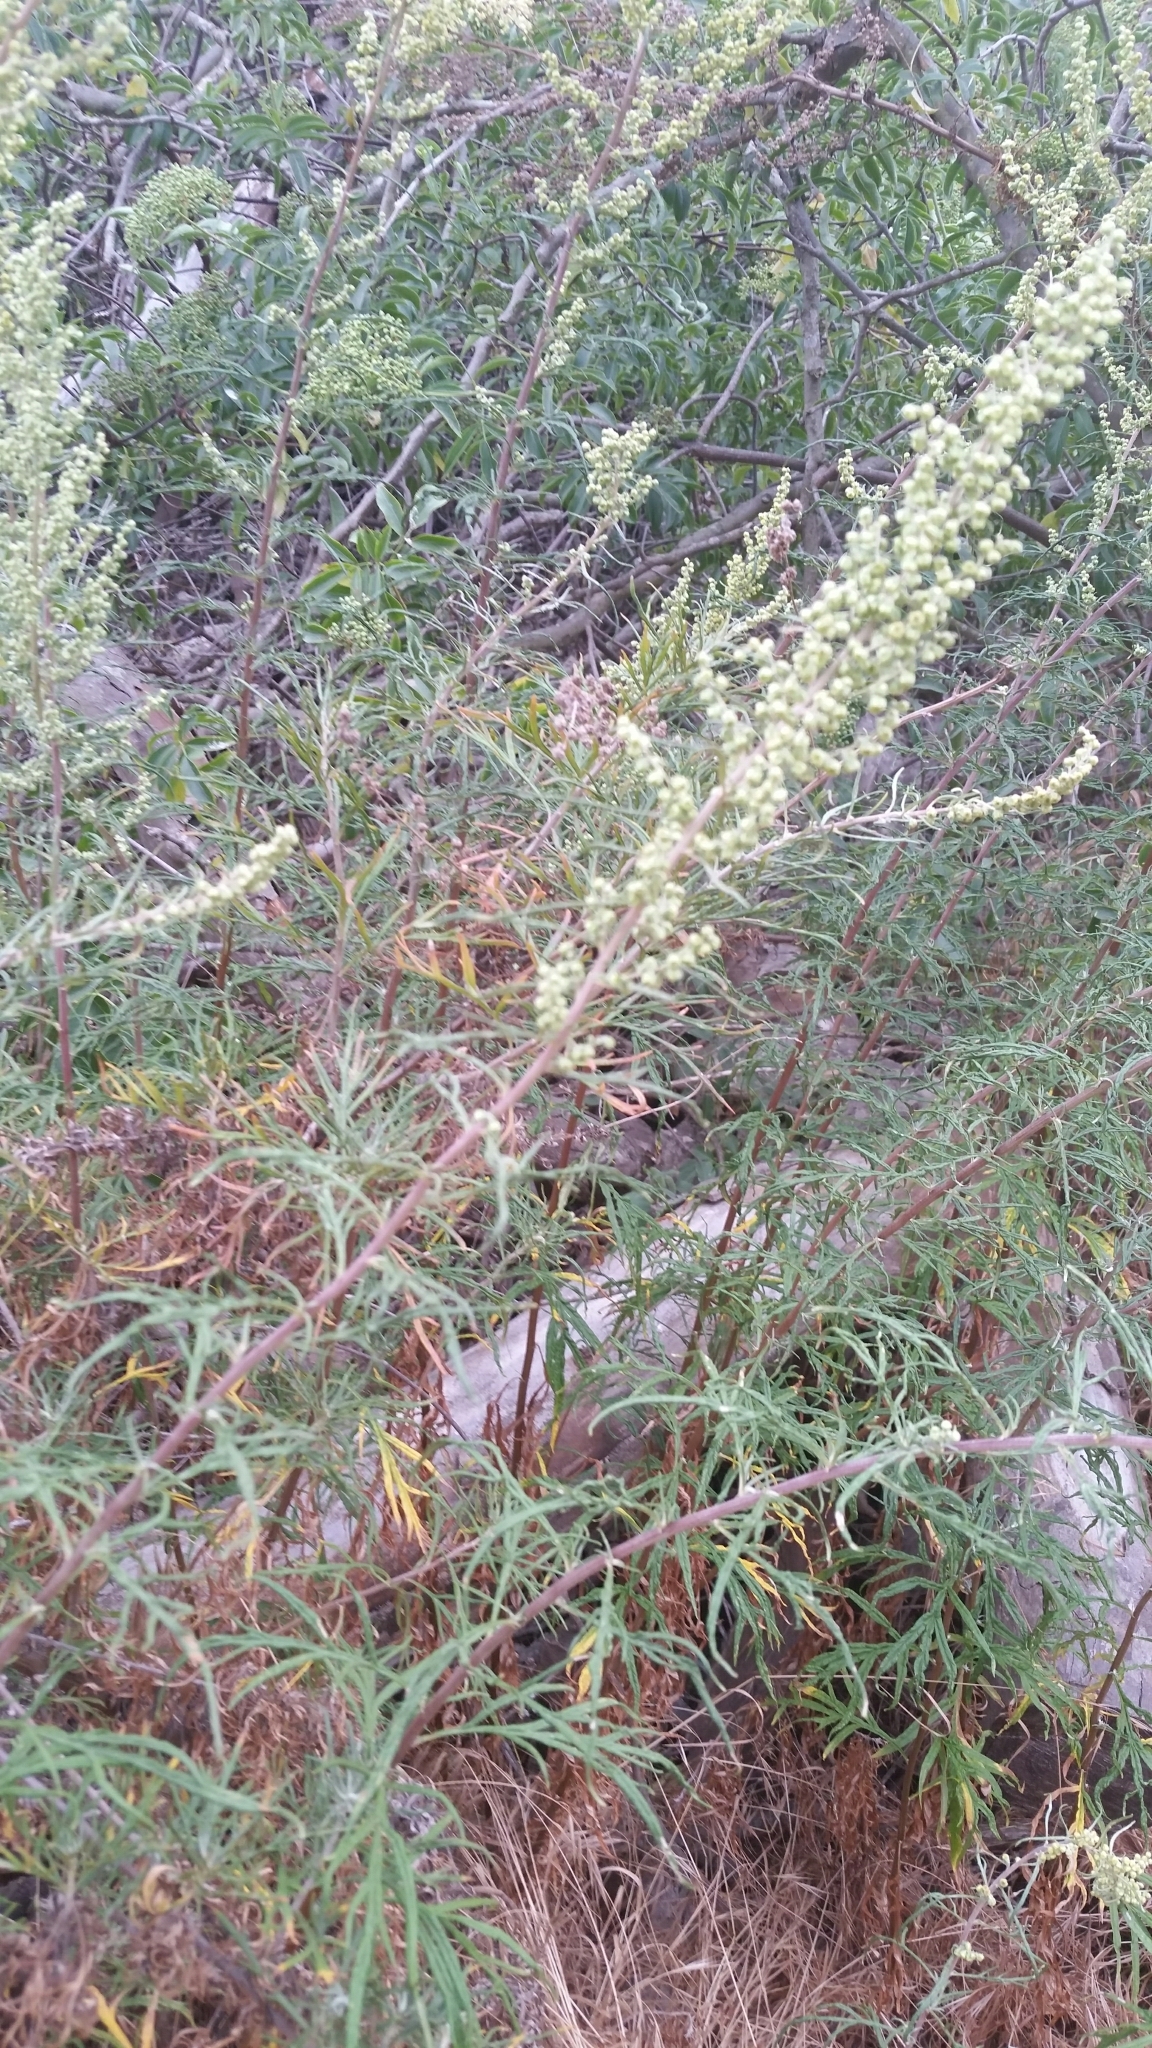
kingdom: Plantae
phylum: Tracheophyta
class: Magnoliopsida
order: Asterales
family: Asteraceae
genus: Artemisia
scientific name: Artemisia palmeri
